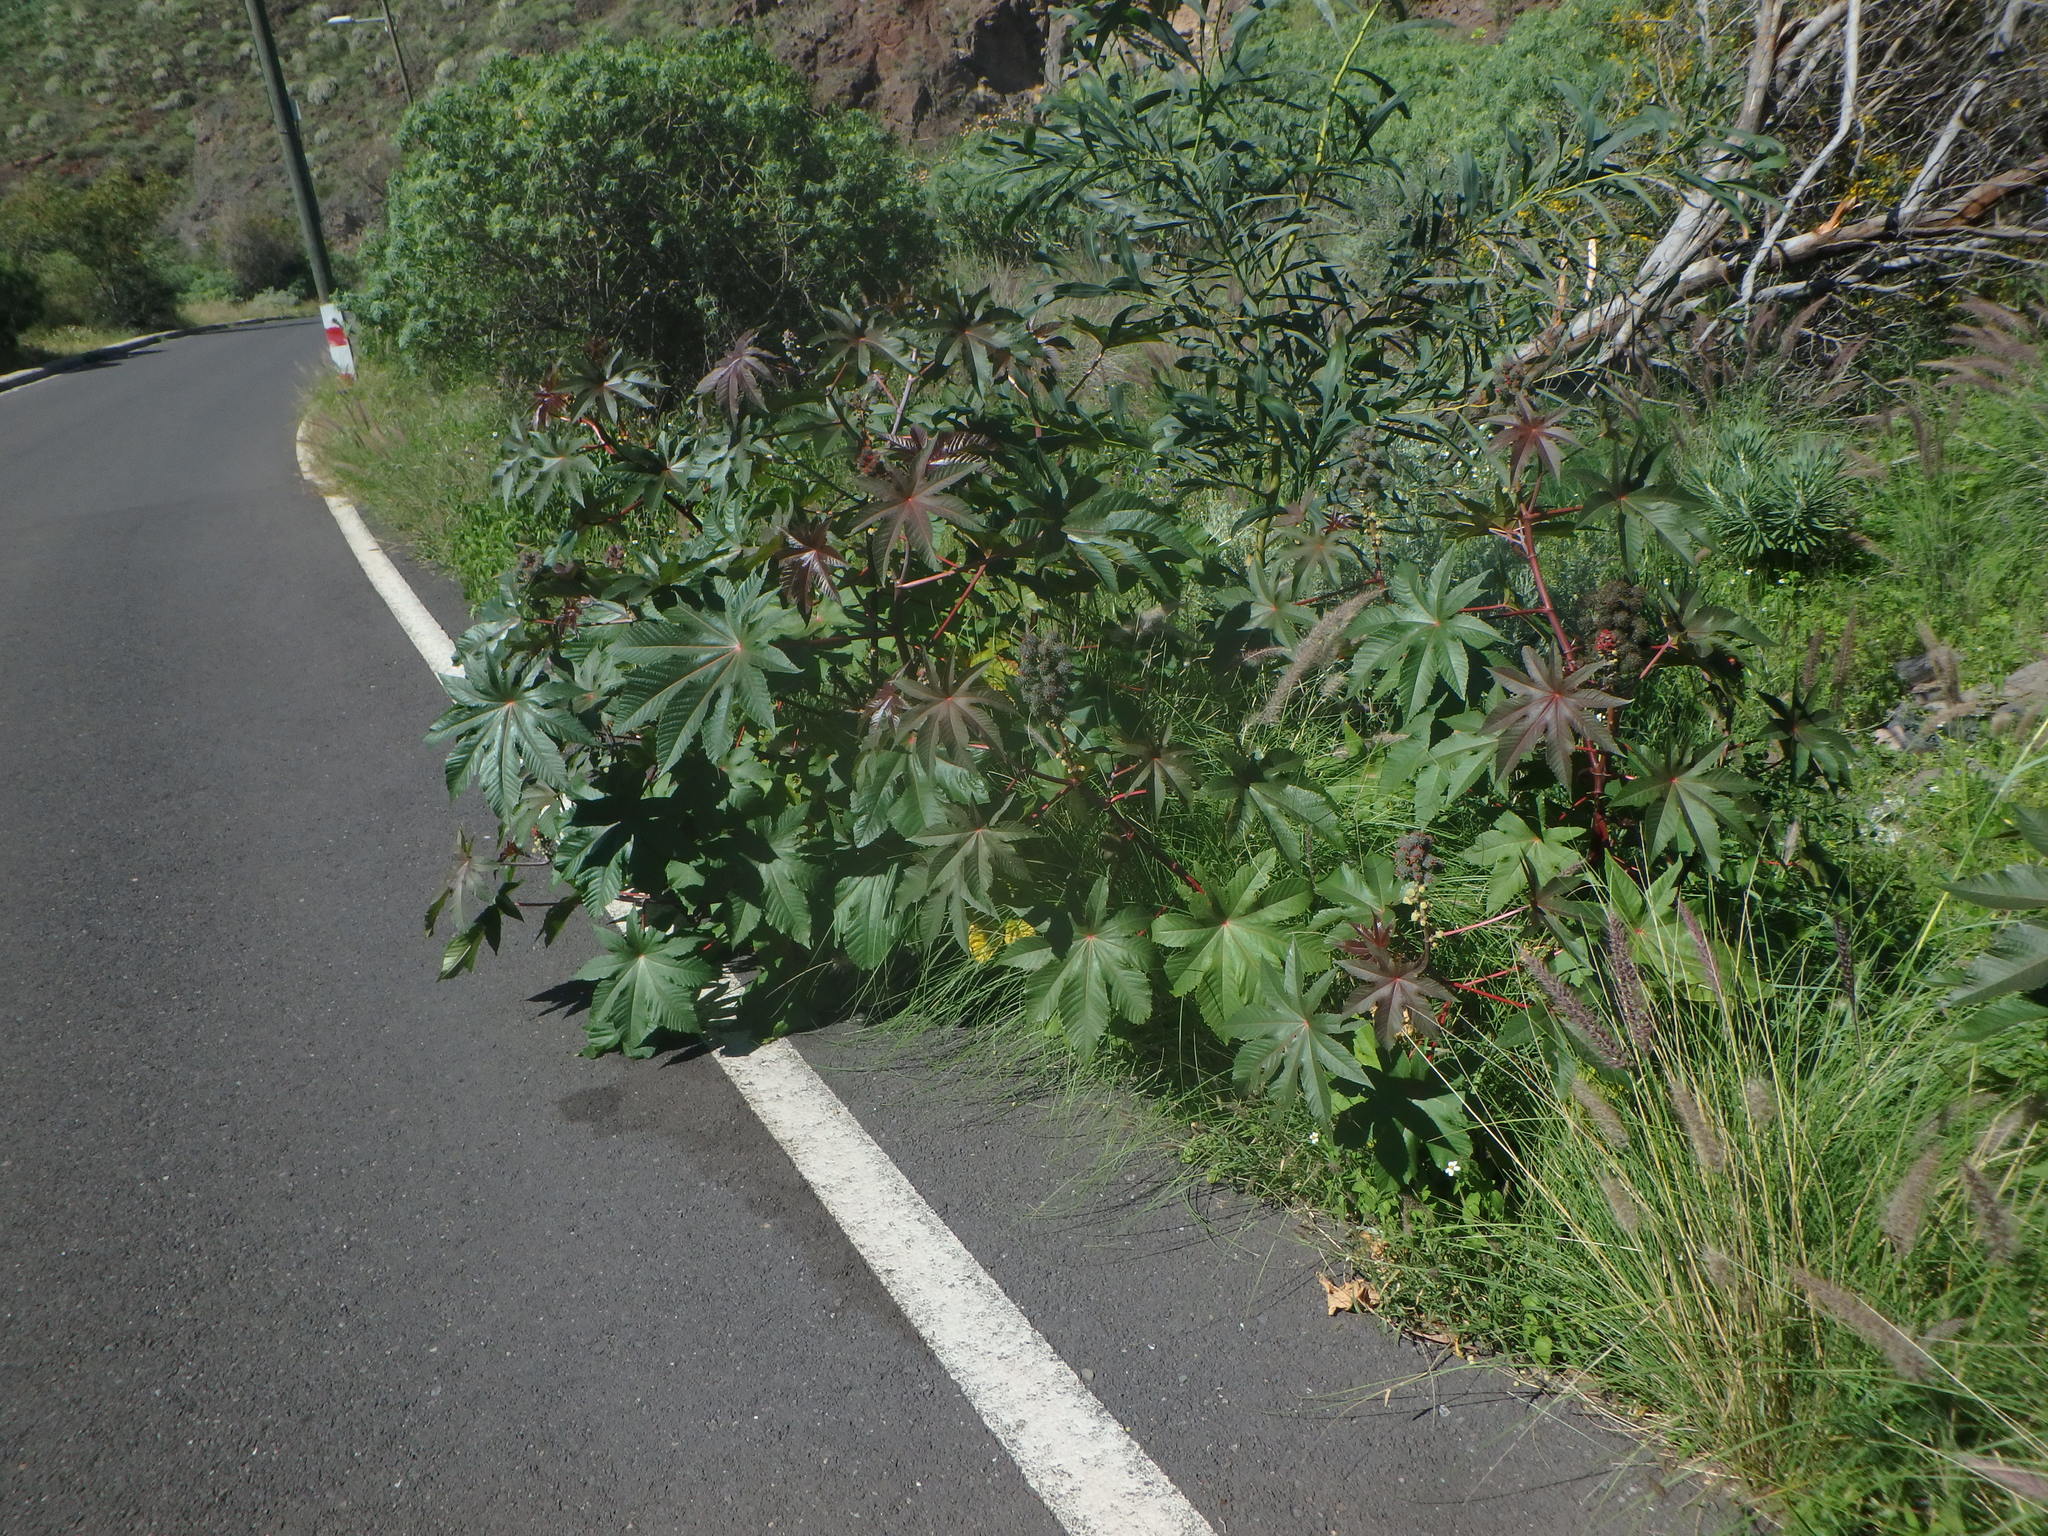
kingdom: Plantae
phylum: Tracheophyta
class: Magnoliopsida
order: Malpighiales
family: Euphorbiaceae
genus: Ricinus
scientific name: Ricinus communis
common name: Castor-oil-plant
